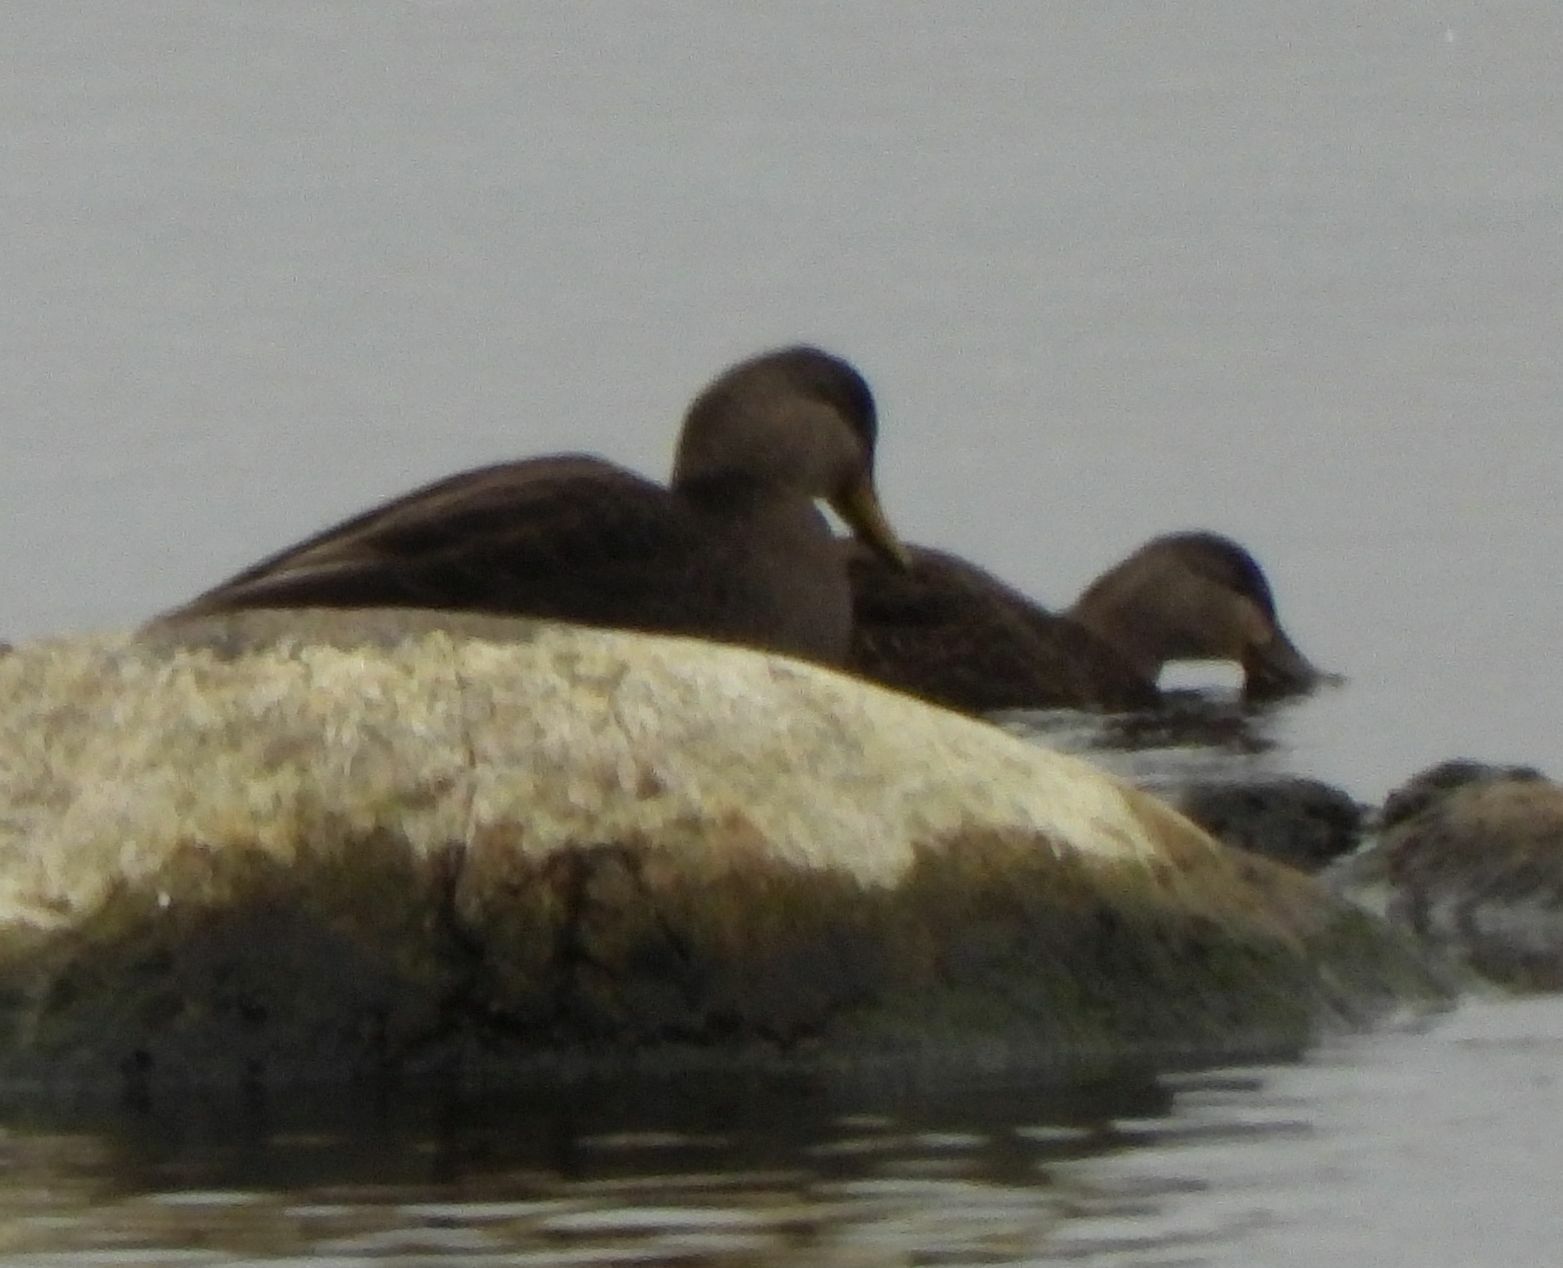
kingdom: Animalia
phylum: Chordata
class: Aves
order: Anseriformes
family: Anatidae
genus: Anas
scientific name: Anas rubripes
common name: American black duck
